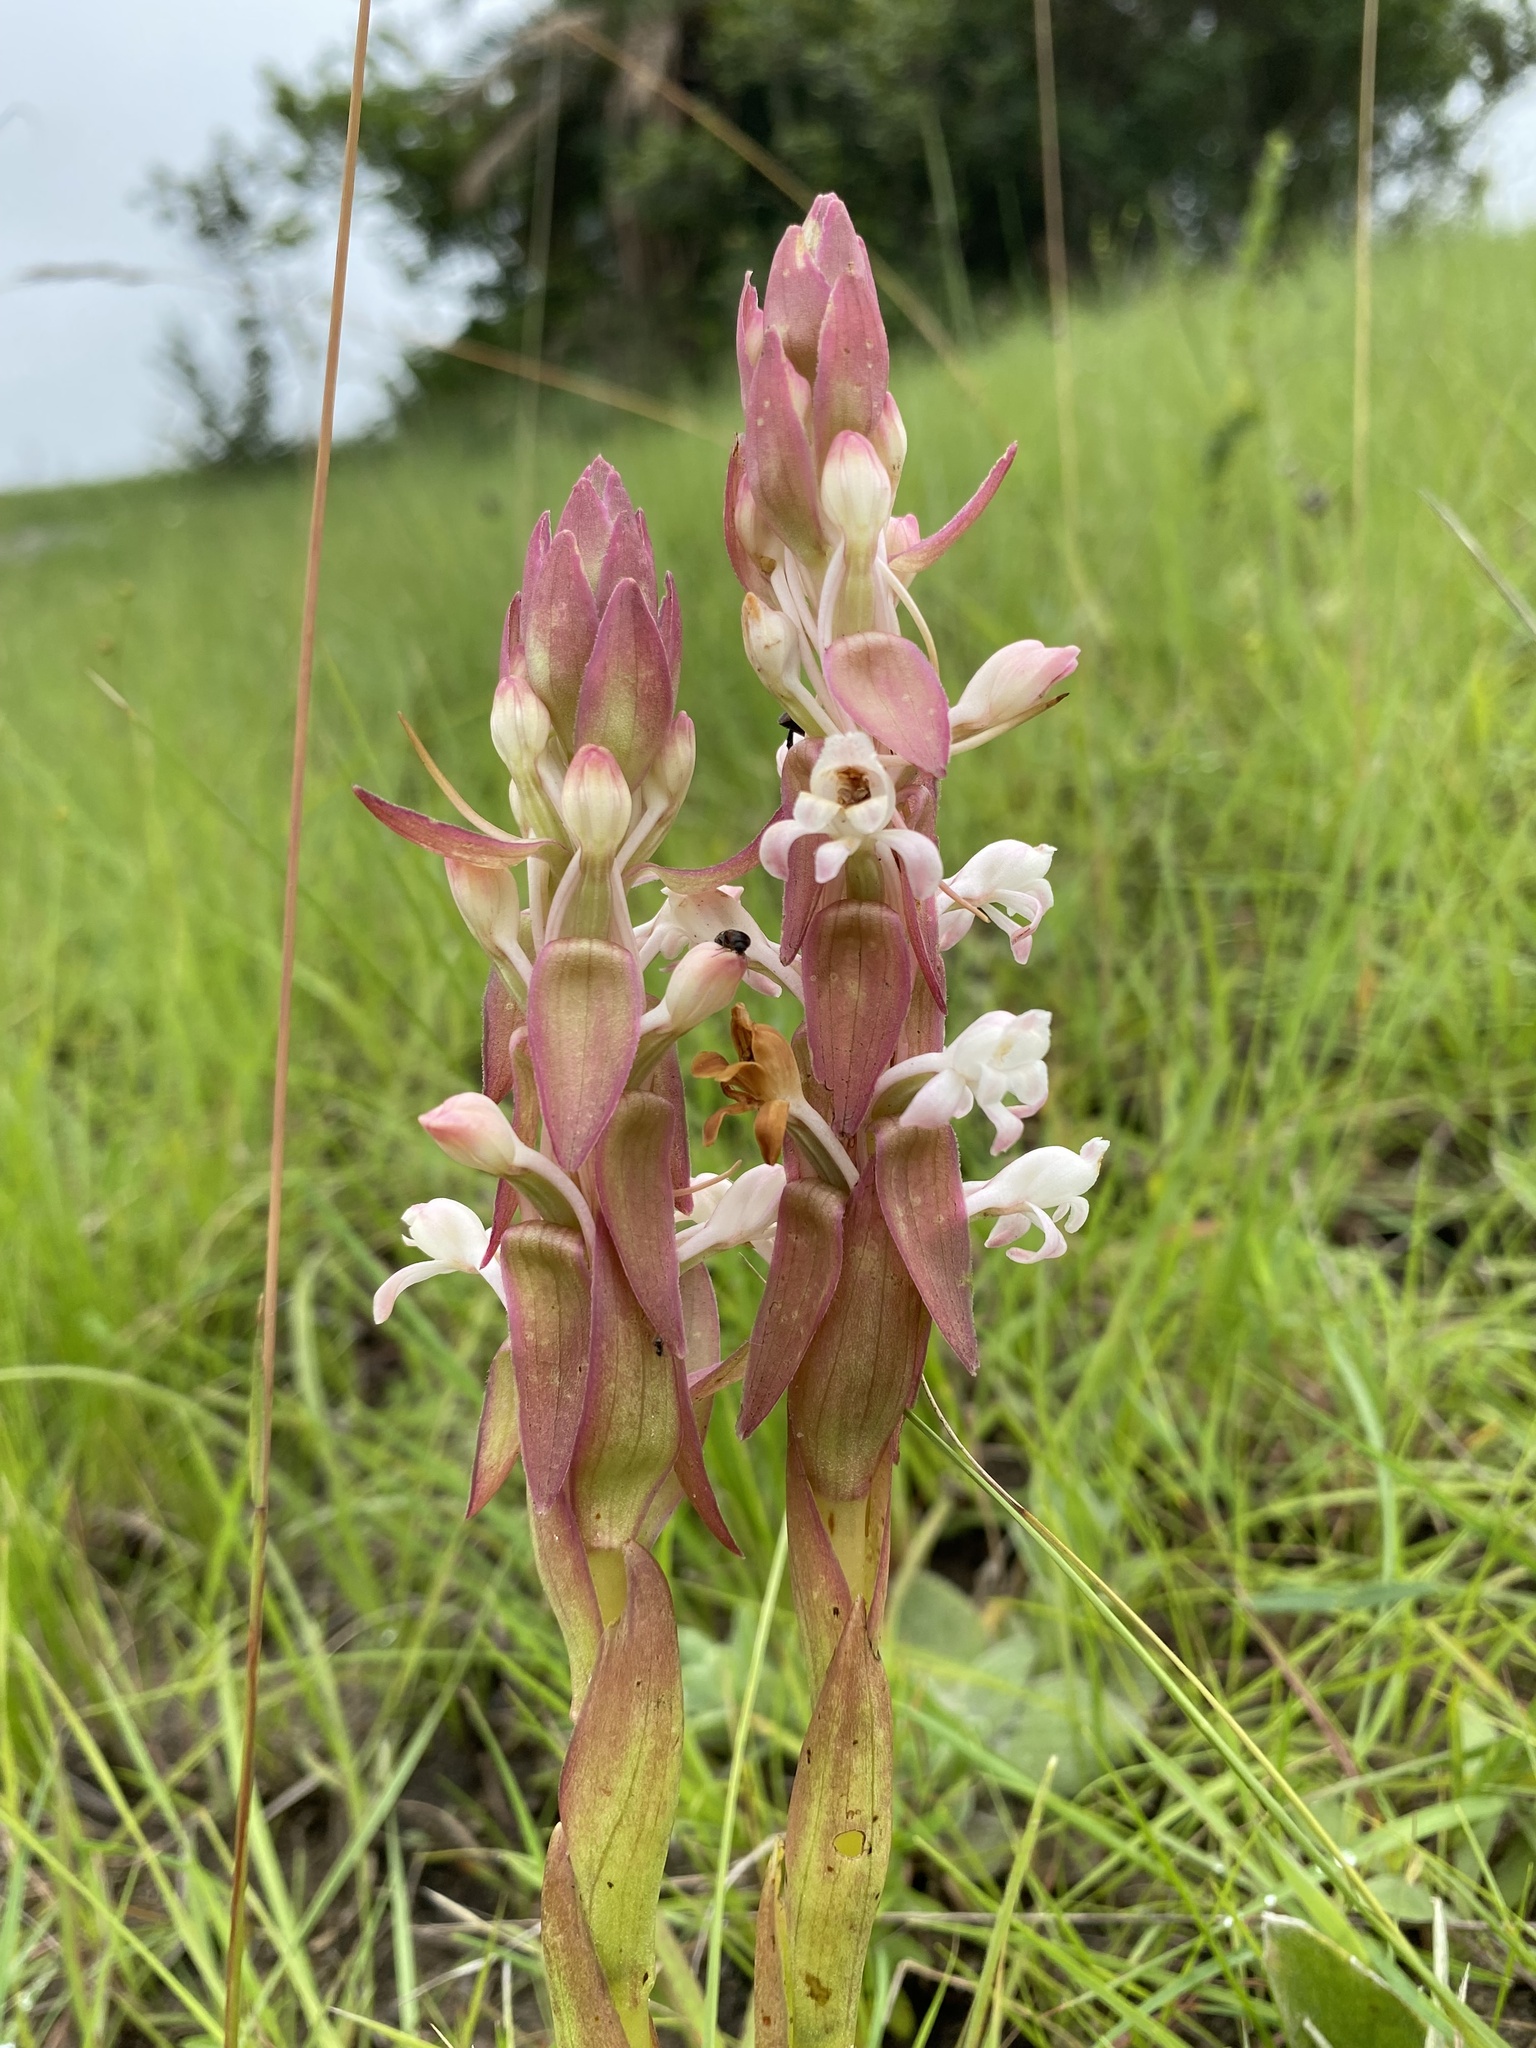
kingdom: Plantae
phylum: Tracheophyta
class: Liliopsida
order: Asparagales
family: Orchidaceae
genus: Satyrium
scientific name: Satyrium longicauda
